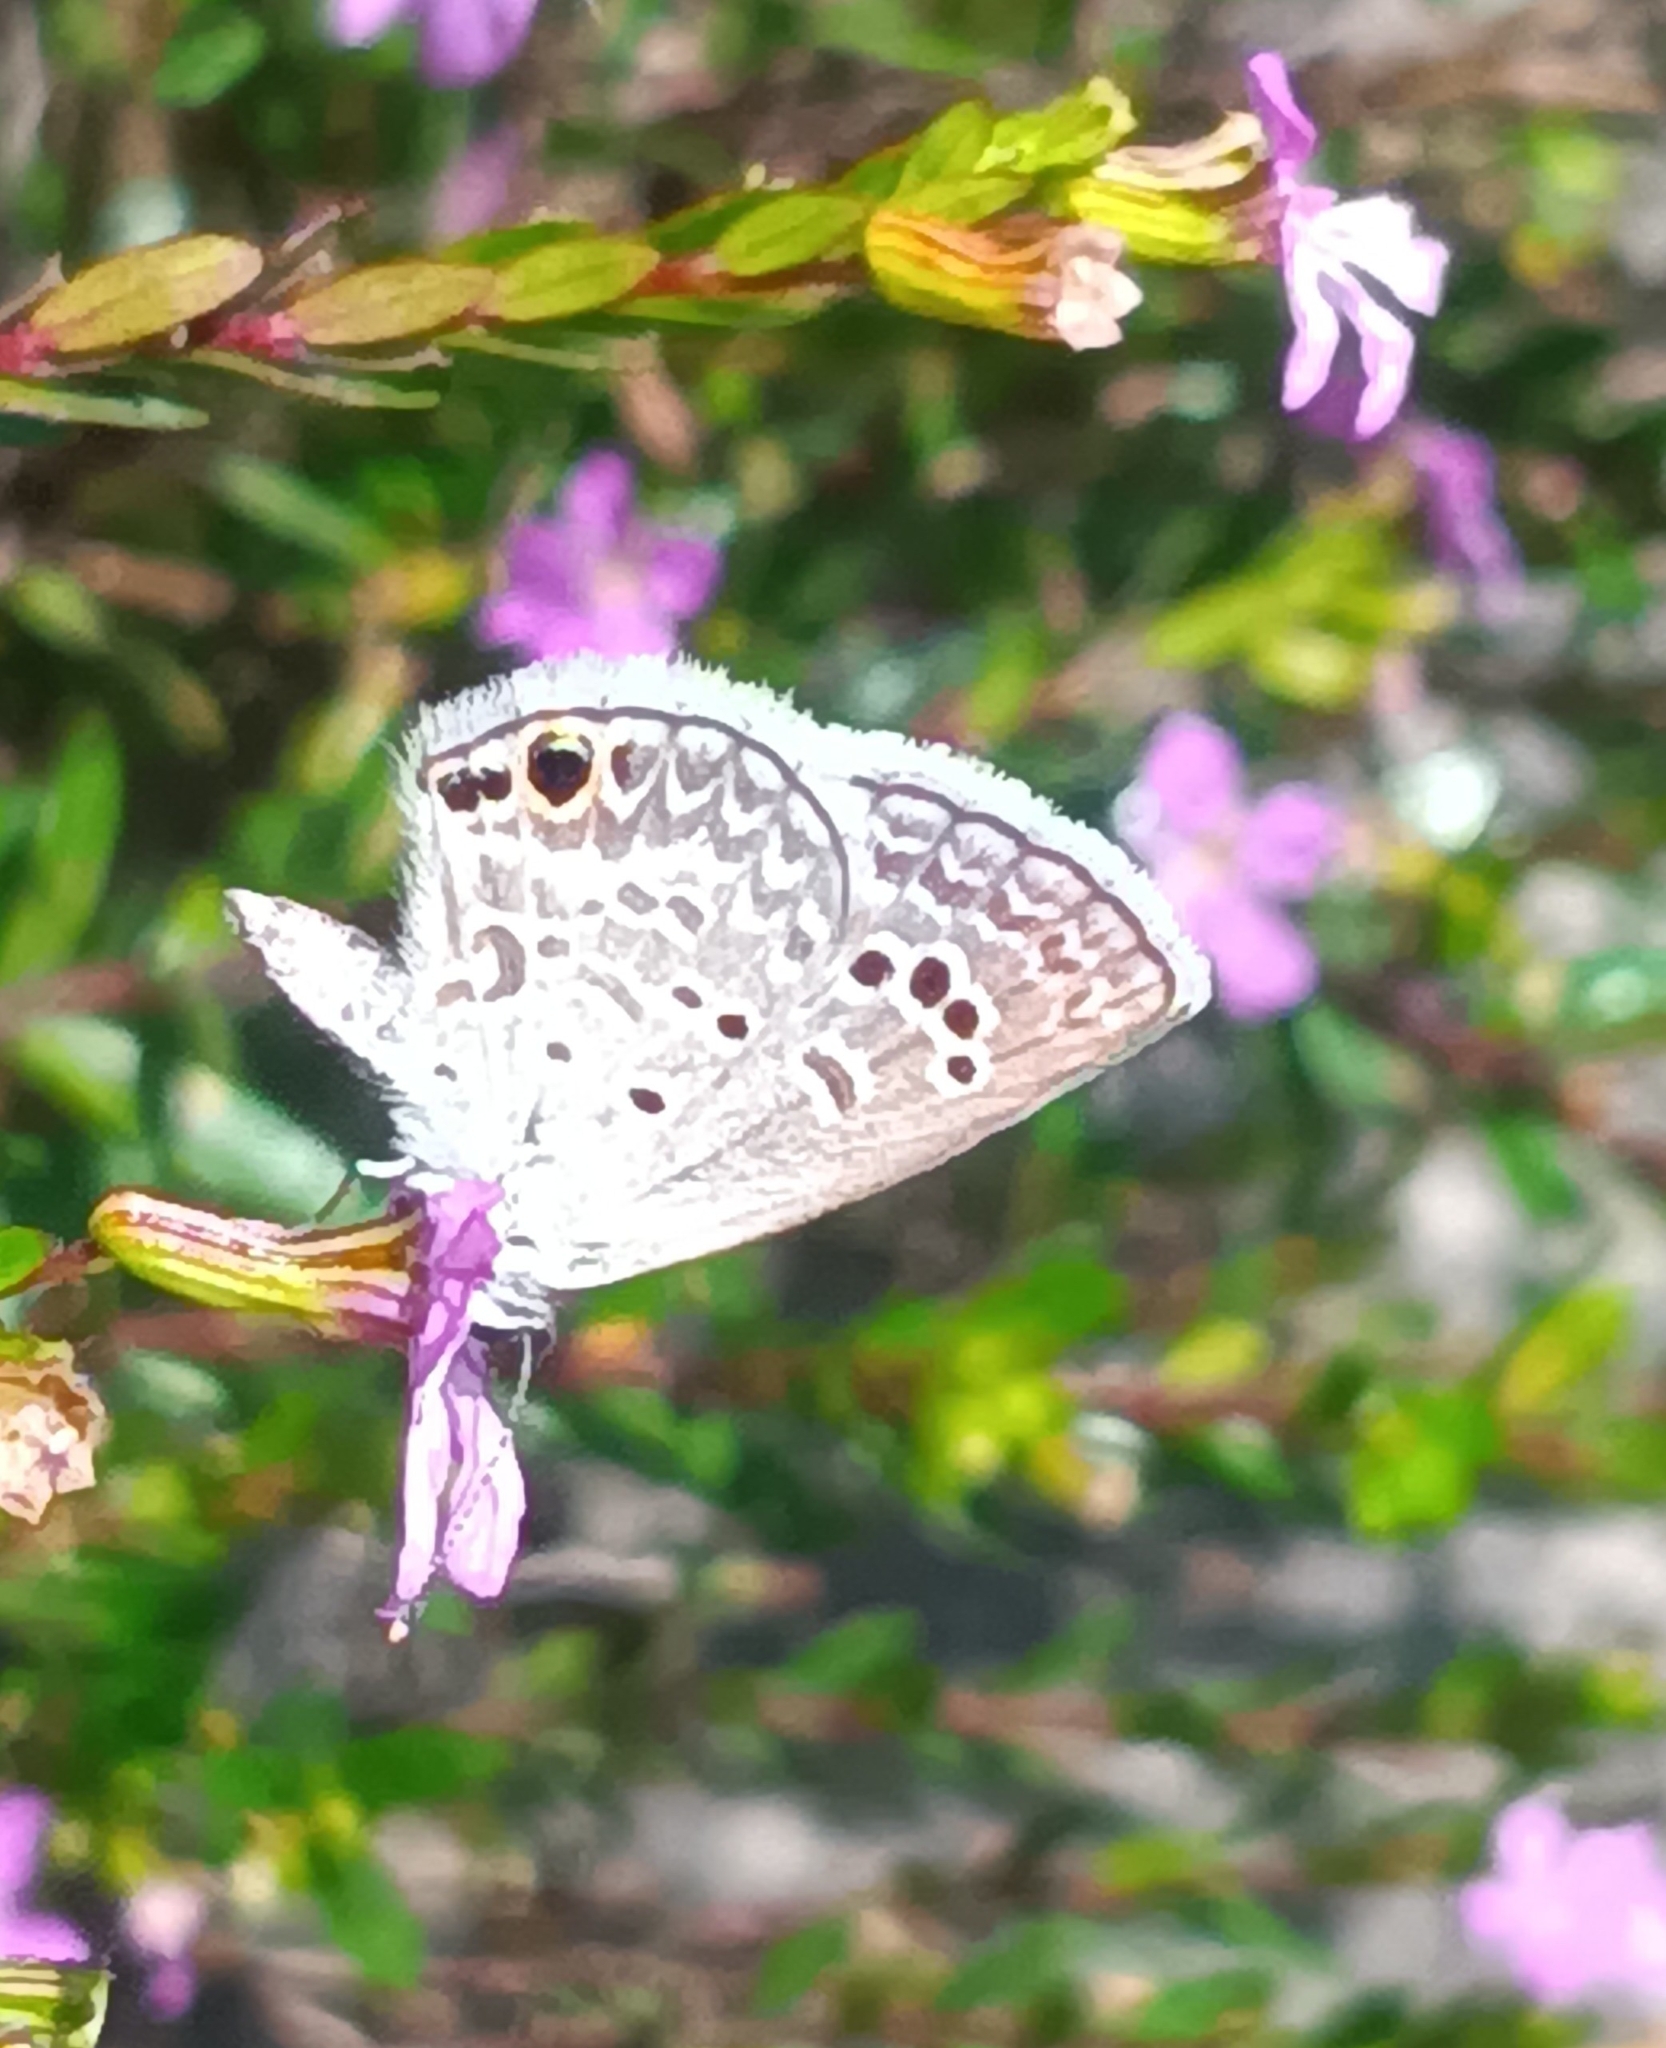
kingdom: Animalia
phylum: Arthropoda
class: Insecta
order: Lepidoptera
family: Lycaenidae
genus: Echinargus
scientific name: Echinargus isola
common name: Reakirt's blue
